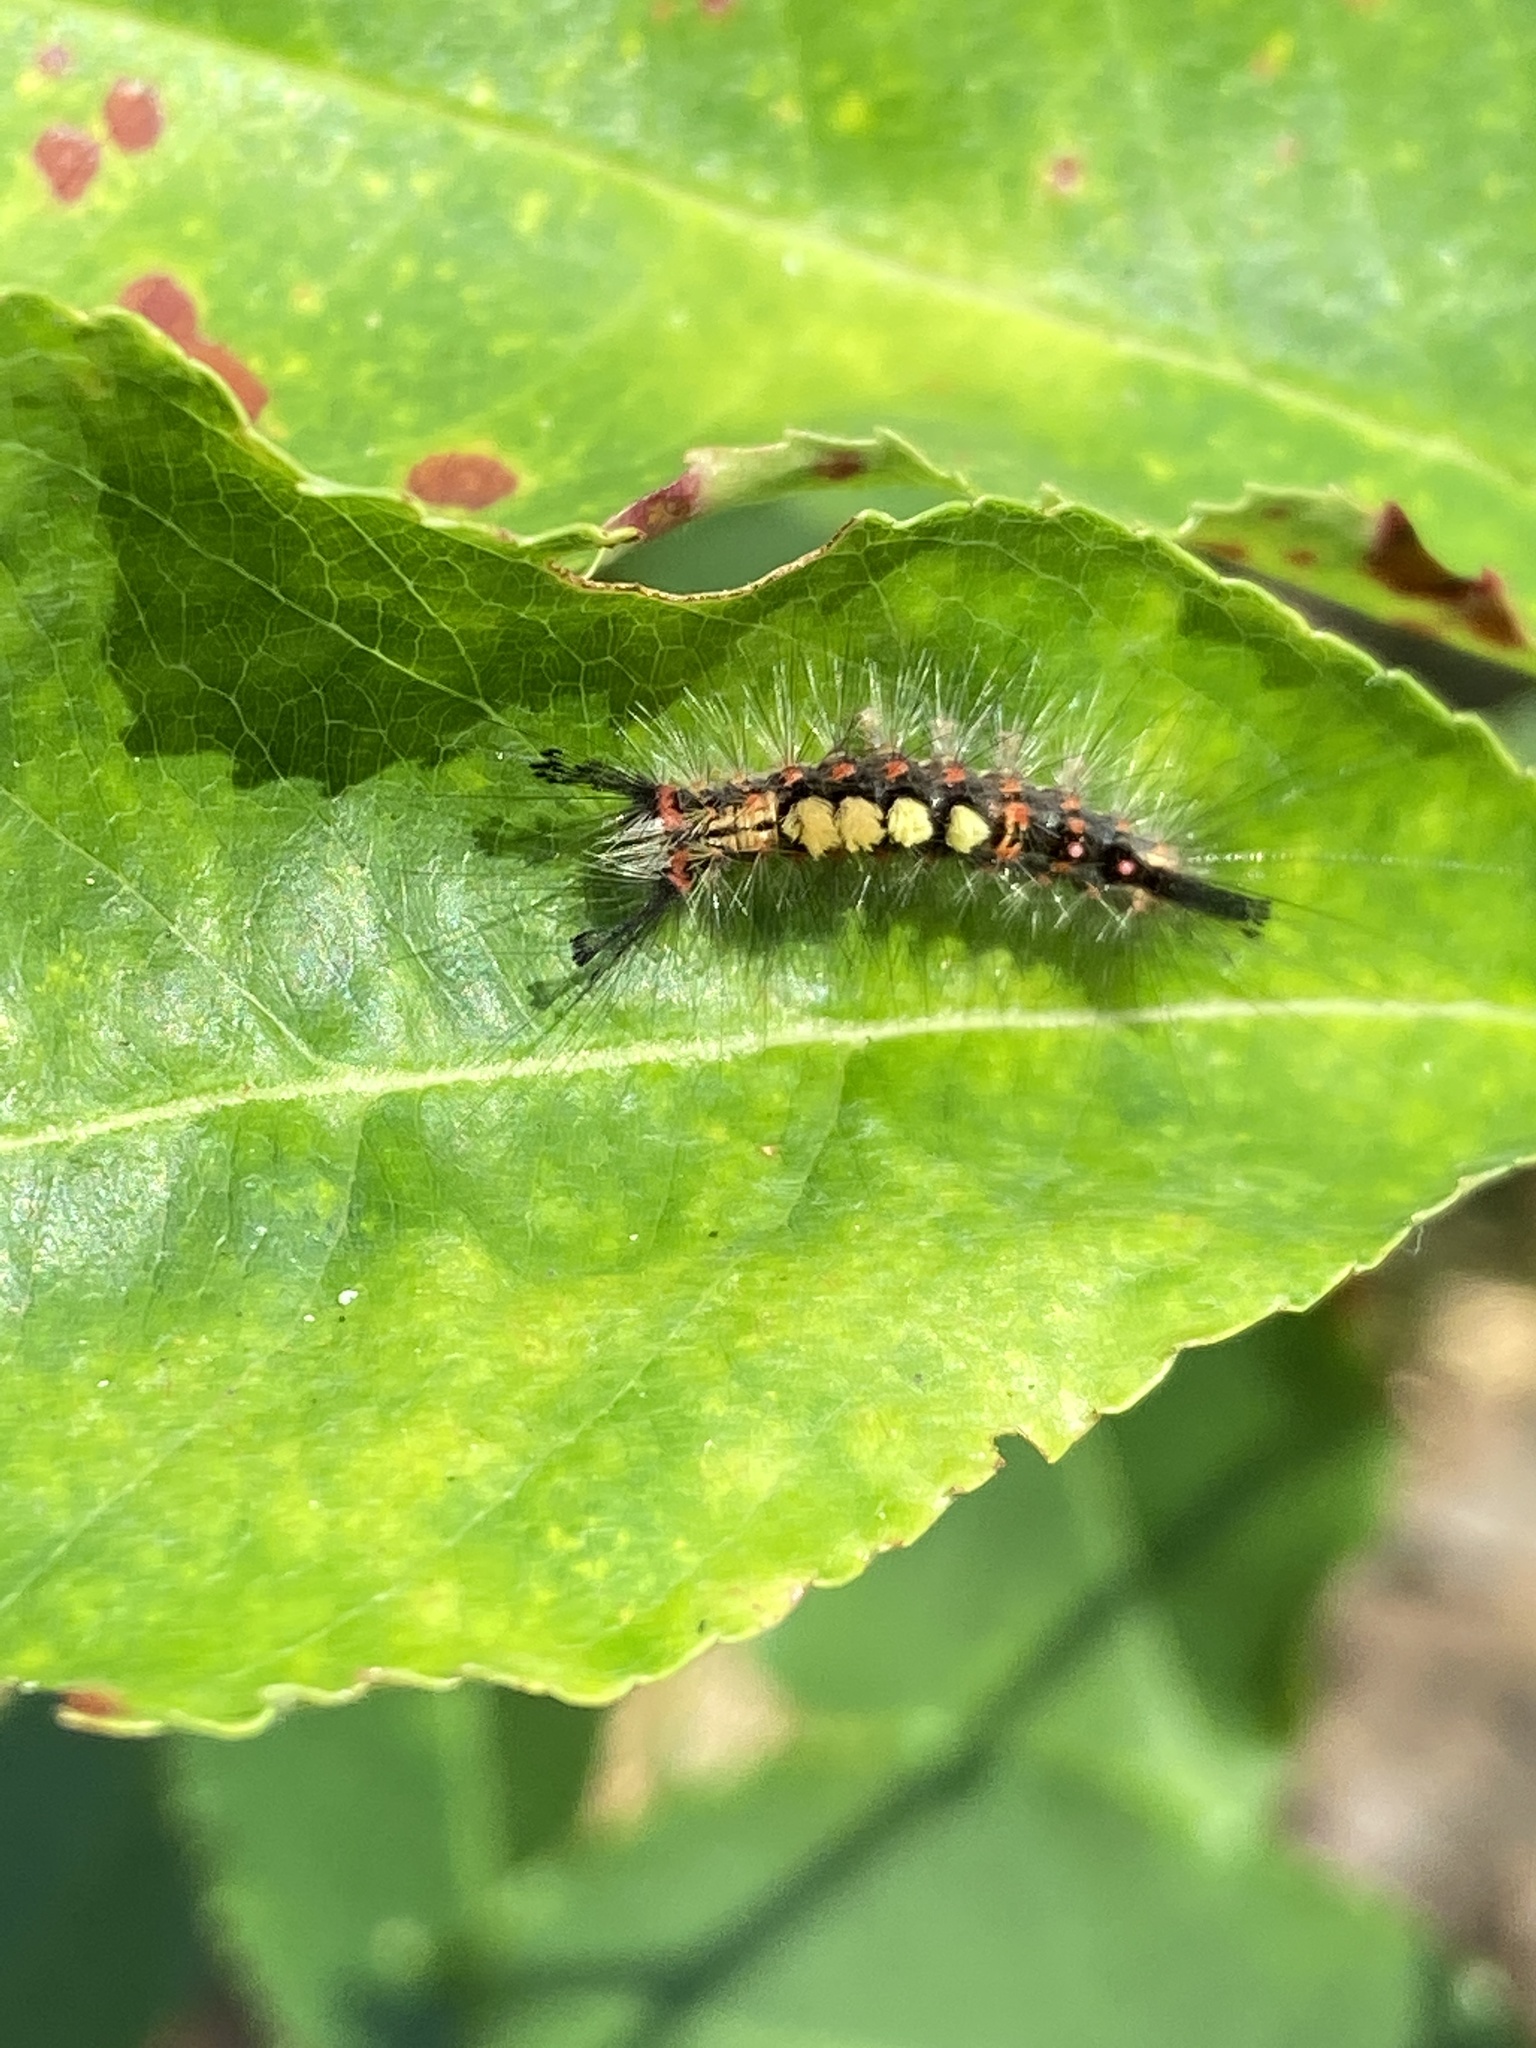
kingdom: Animalia
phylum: Arthropoda
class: Insecta
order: Lepidoptera
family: Erebidae
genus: Orgyia
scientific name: Orgyia antiqua
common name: Vapourer
